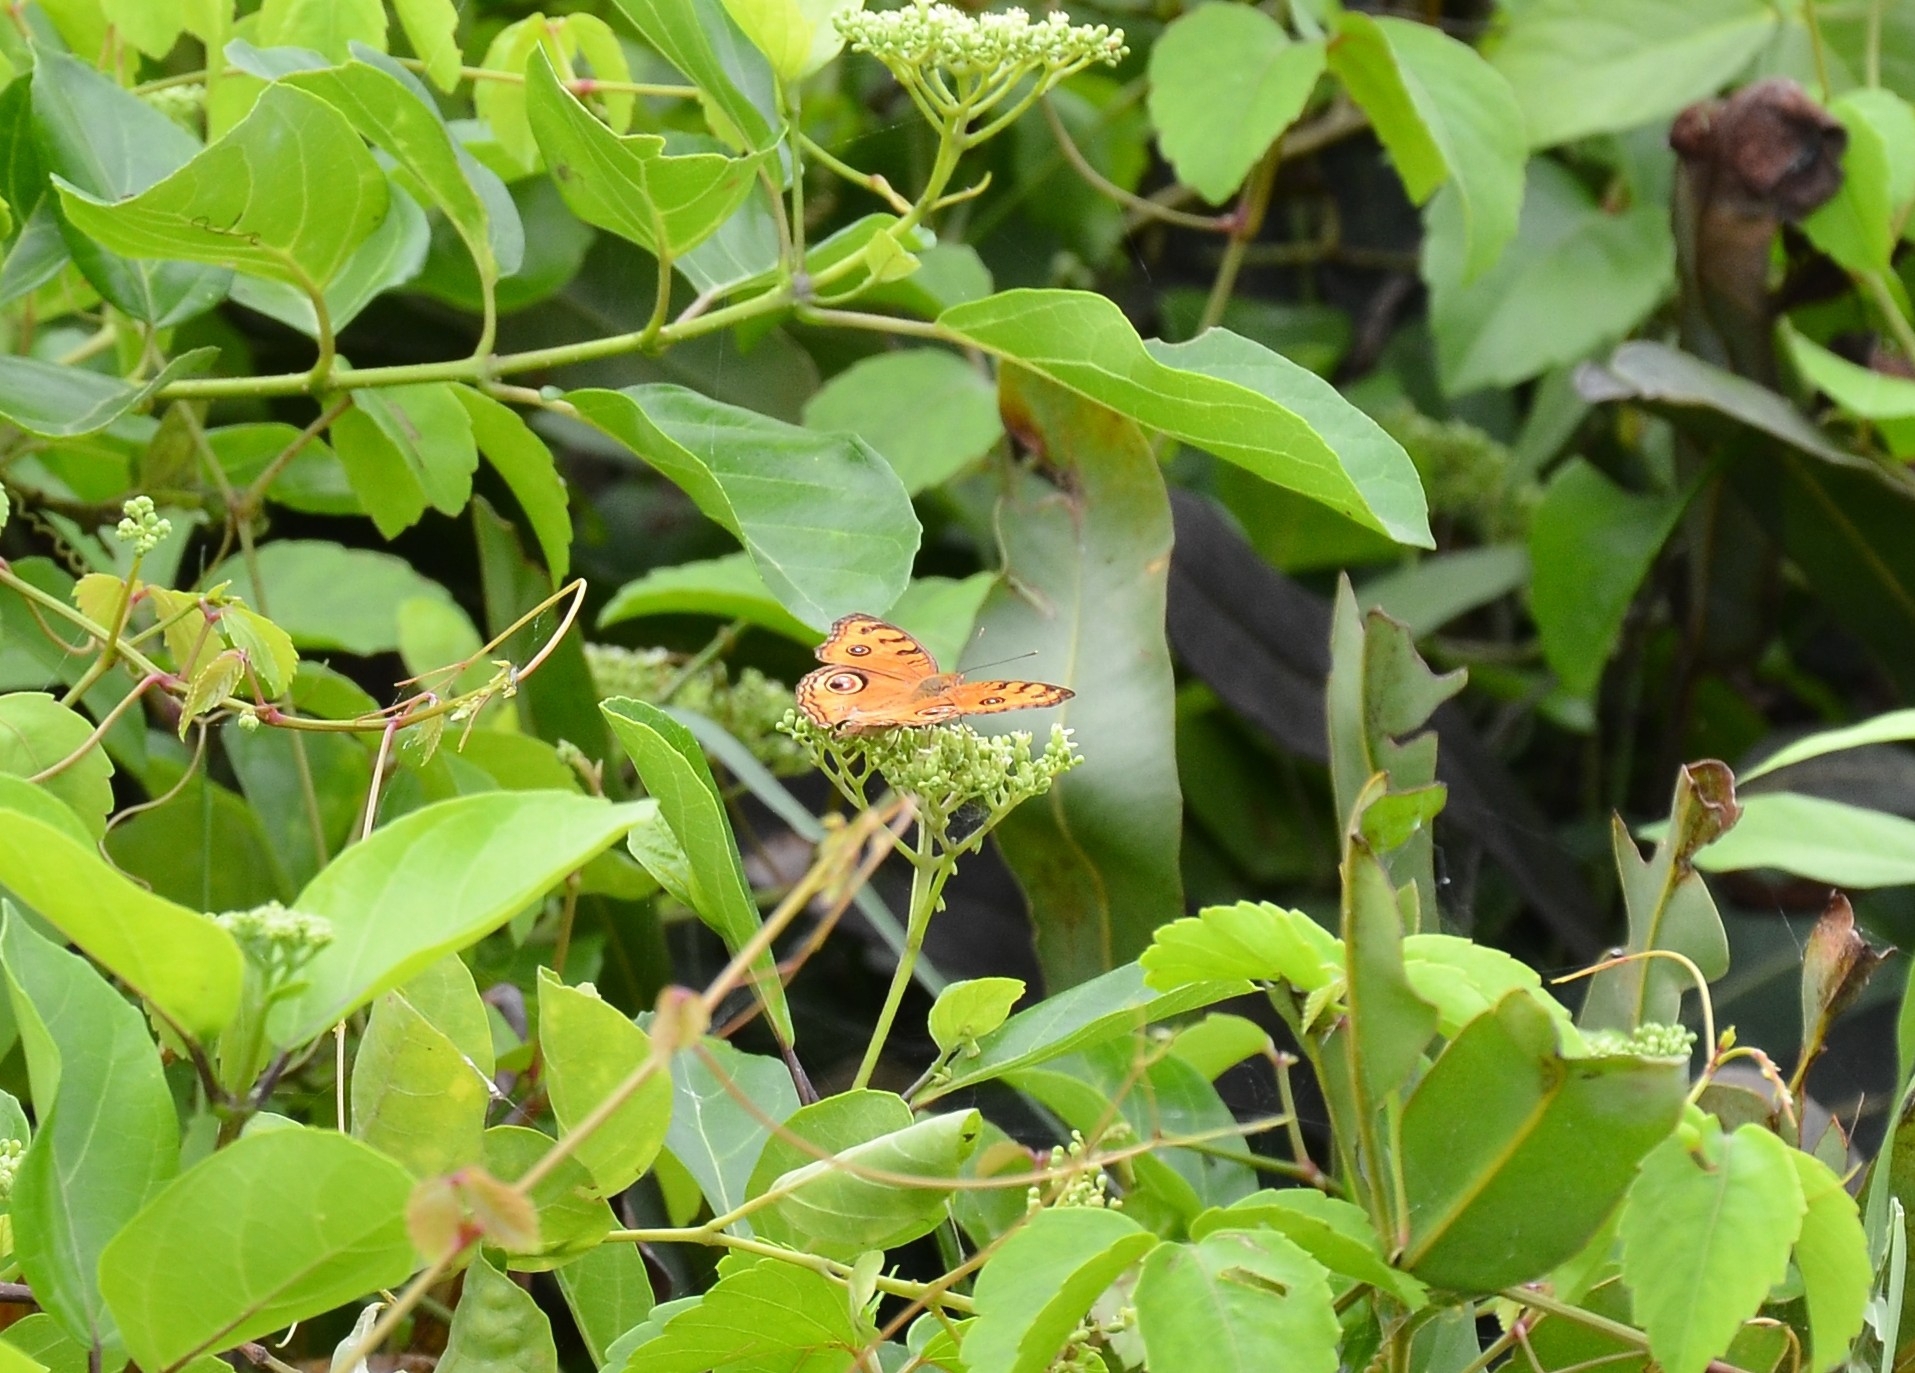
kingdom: Animalia
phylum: Arthropoda
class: Insecta
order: Lepidoptera
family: Nymphalidae
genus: Junonia
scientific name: Junonia almana
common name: Peacock pansy
